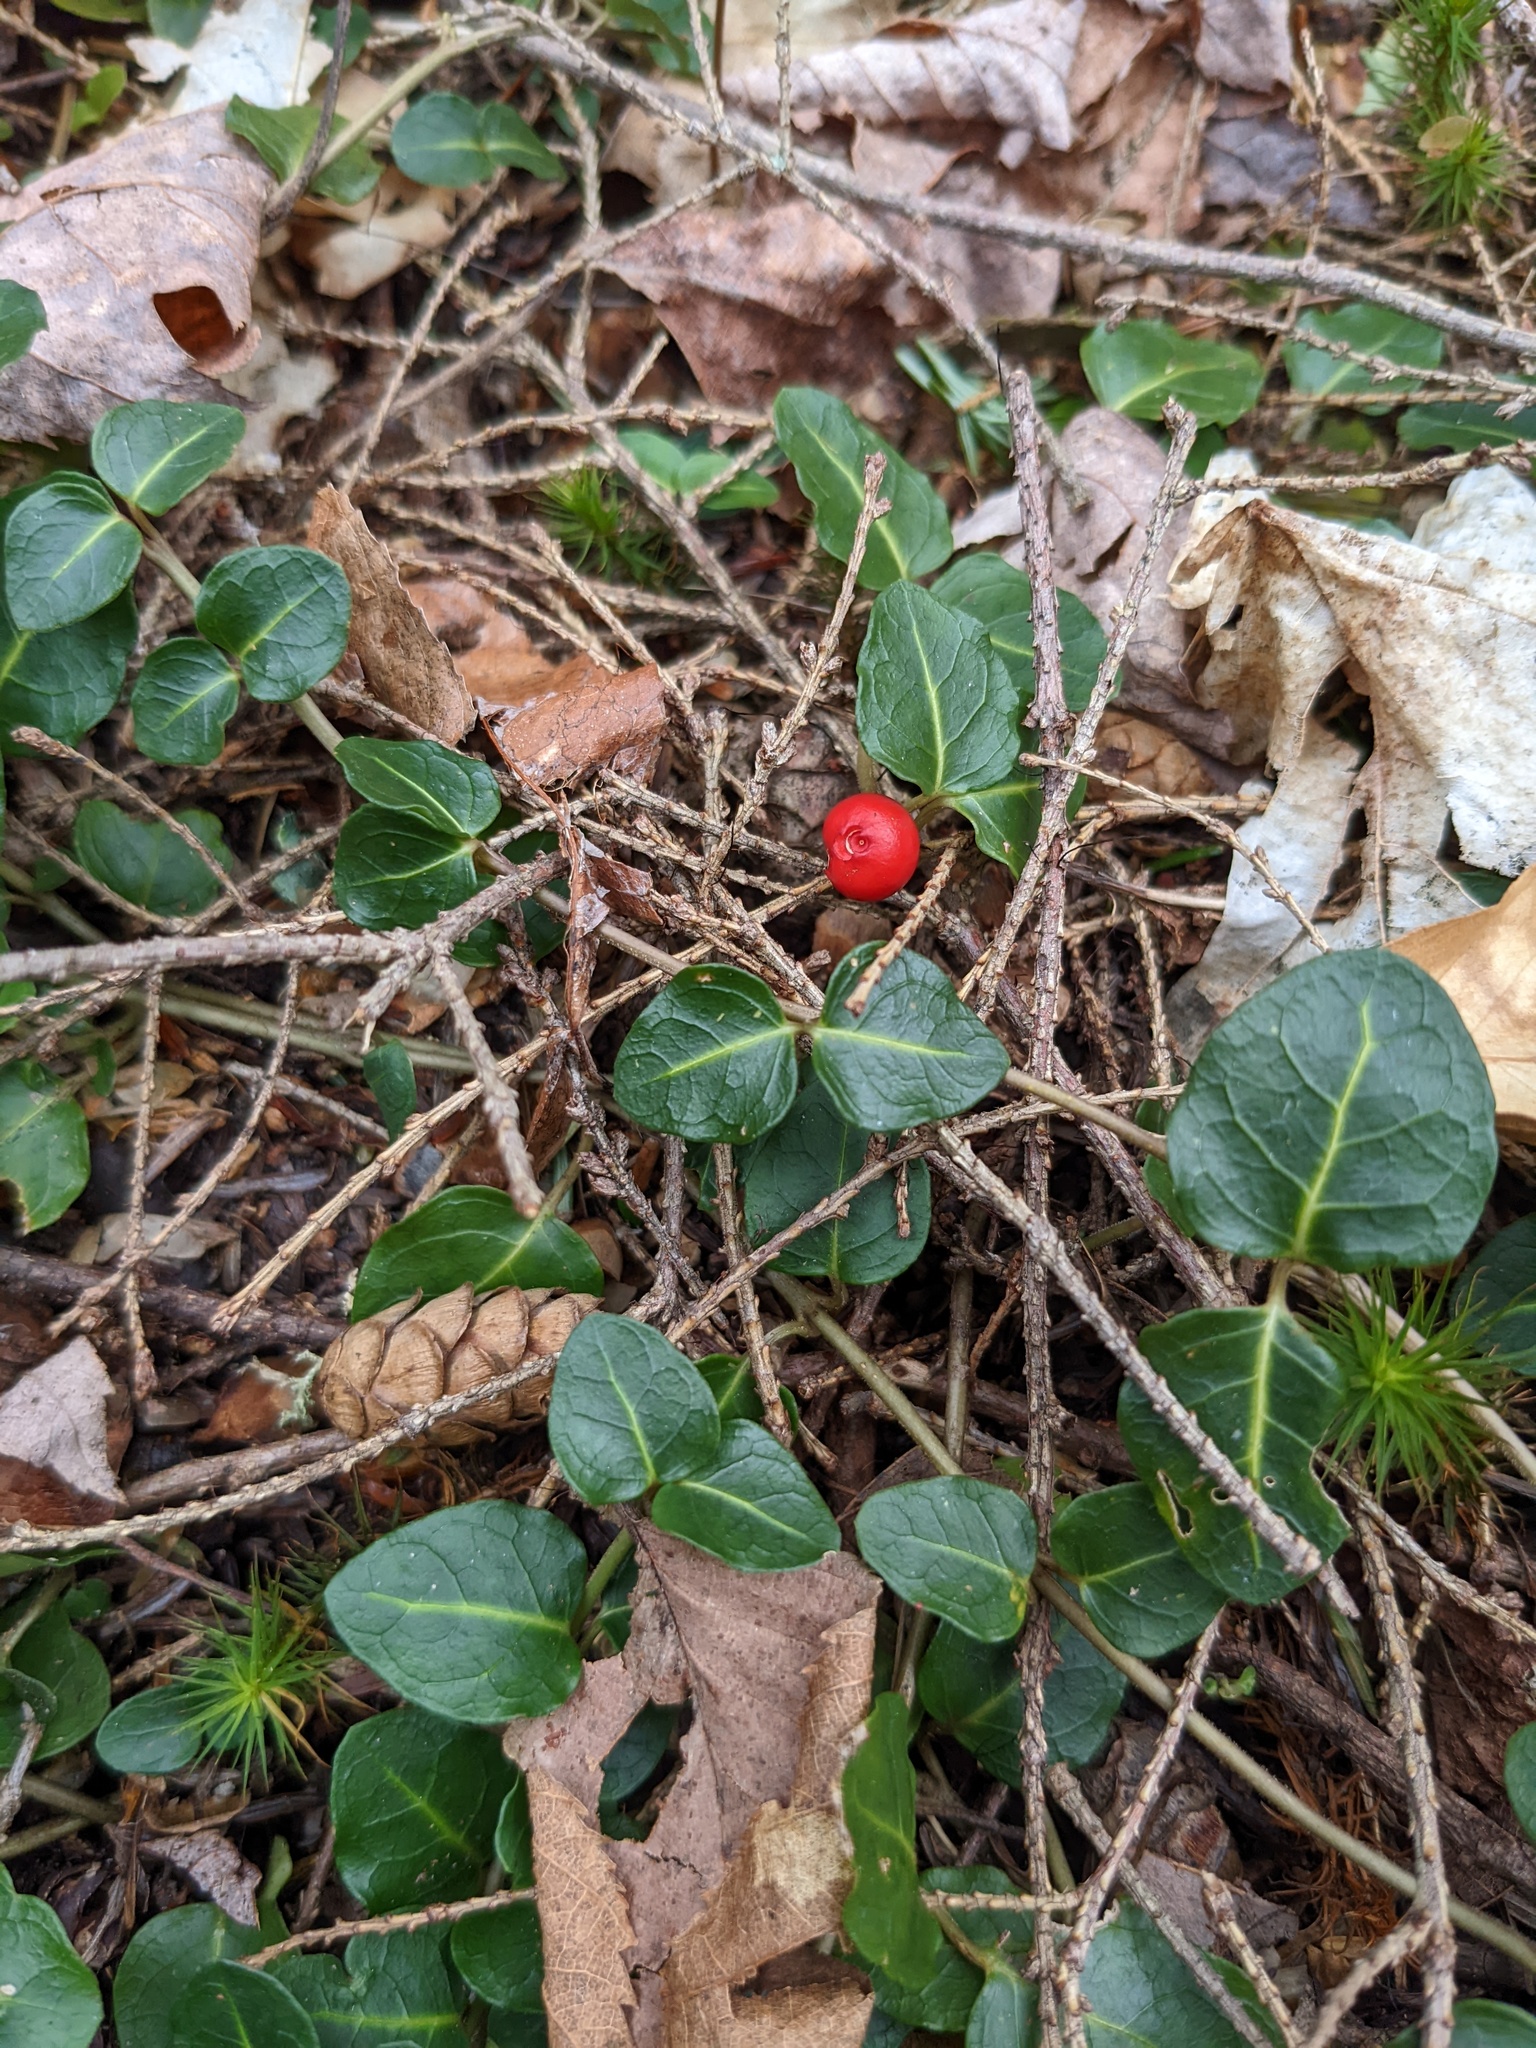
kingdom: Plantae
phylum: Tracheophyta
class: Magnoliopsida
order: Gentianales
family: Rubiaceae
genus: Mitchella
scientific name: Mitchella repens
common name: Partridge-berry
